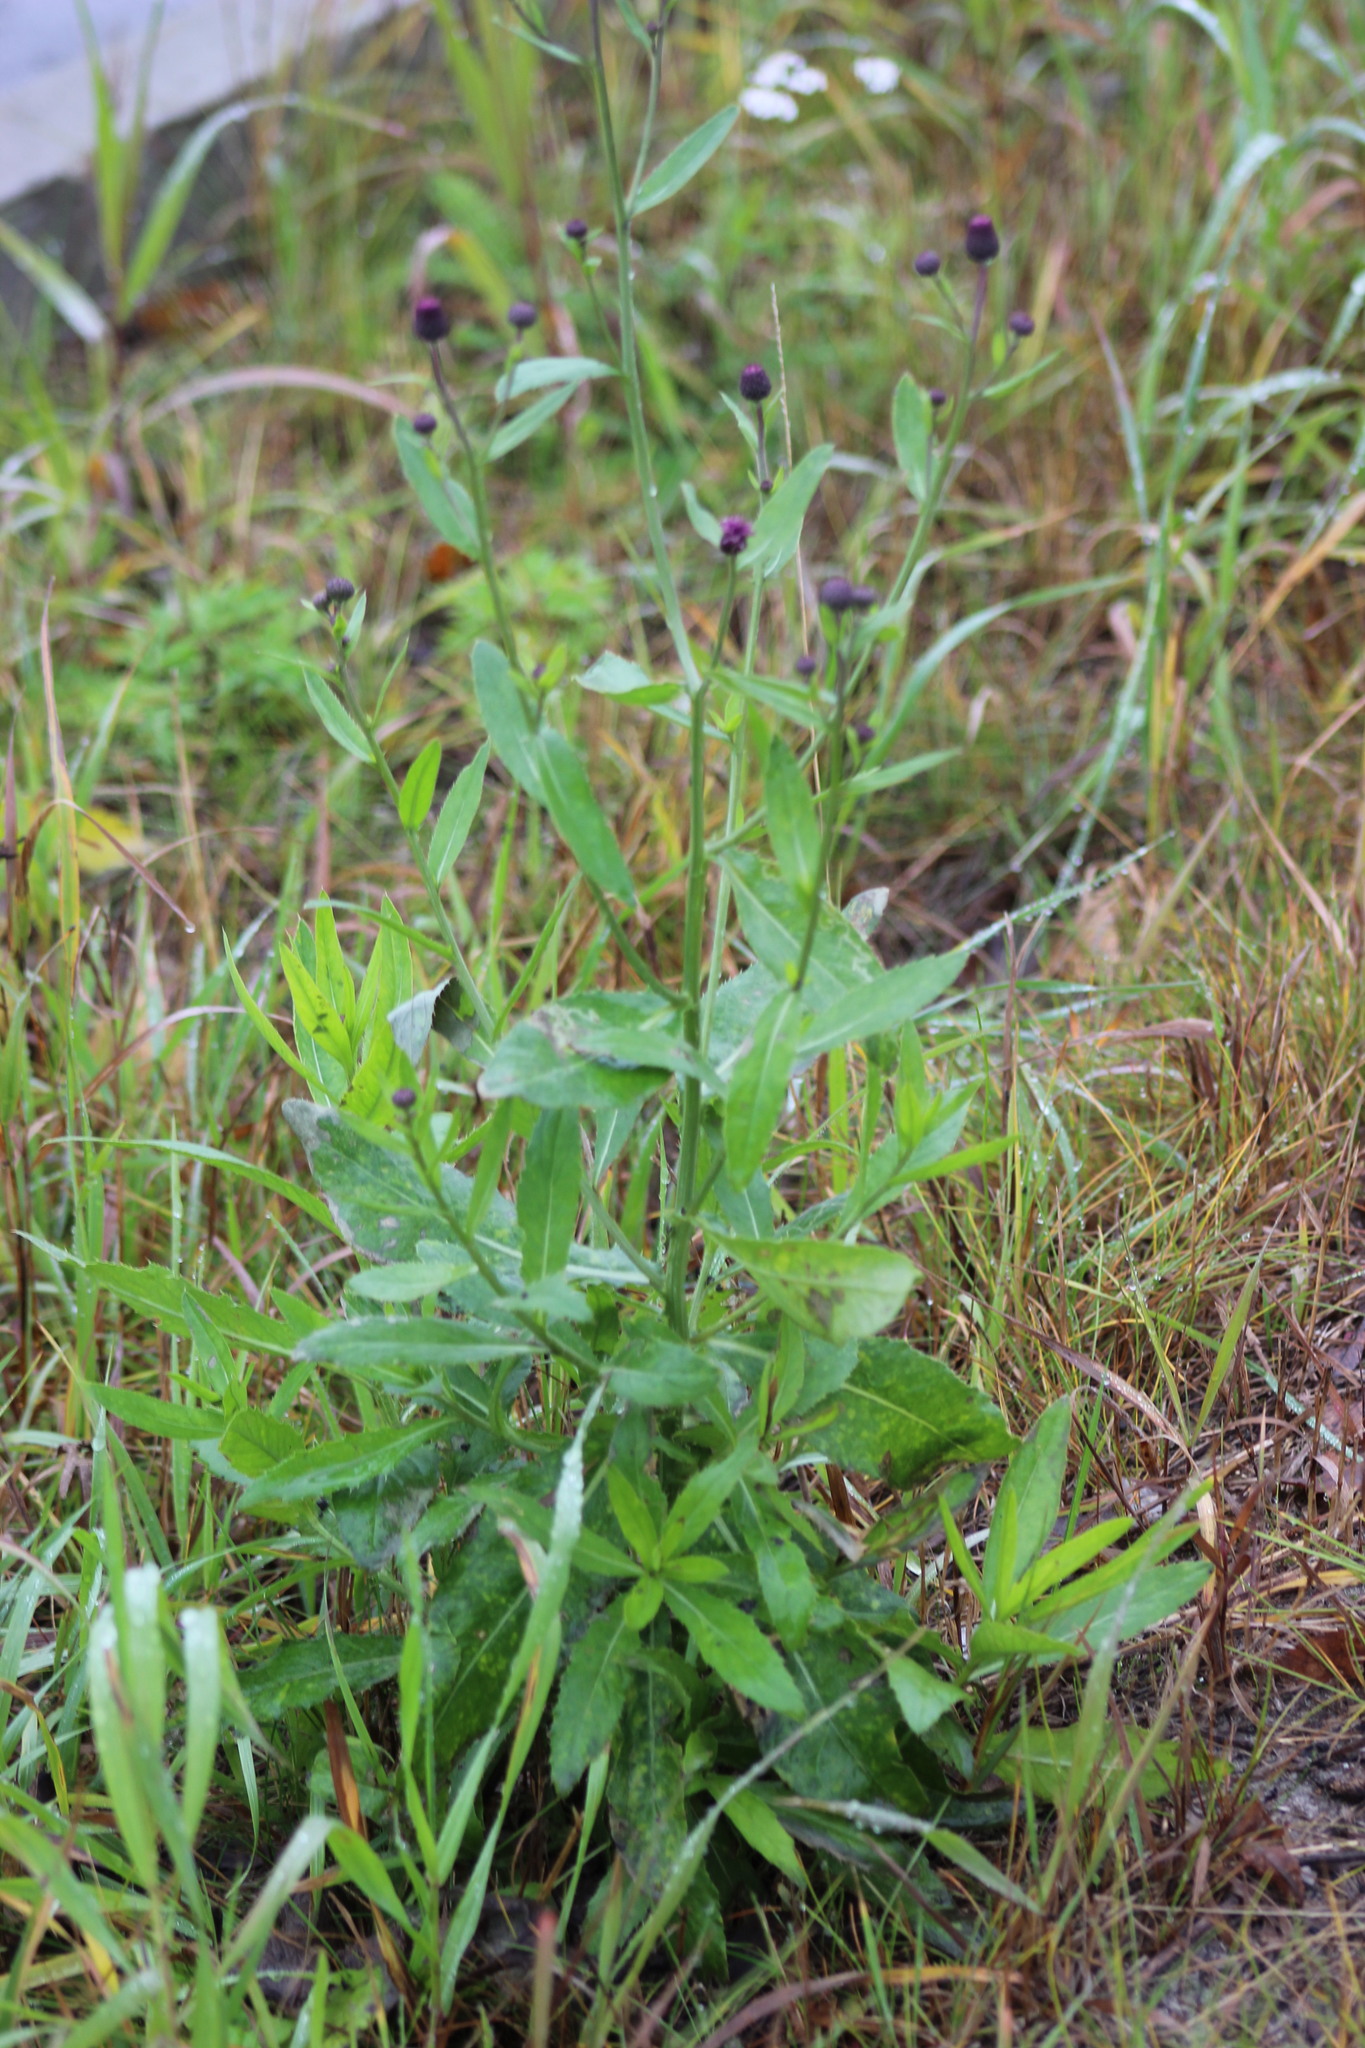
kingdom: Plantae
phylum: Tracheophyta
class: Magnoliopsida
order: Asterales
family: Asteraceae
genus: Cirsium
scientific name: Cirsium arvense
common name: Creeping thistle
